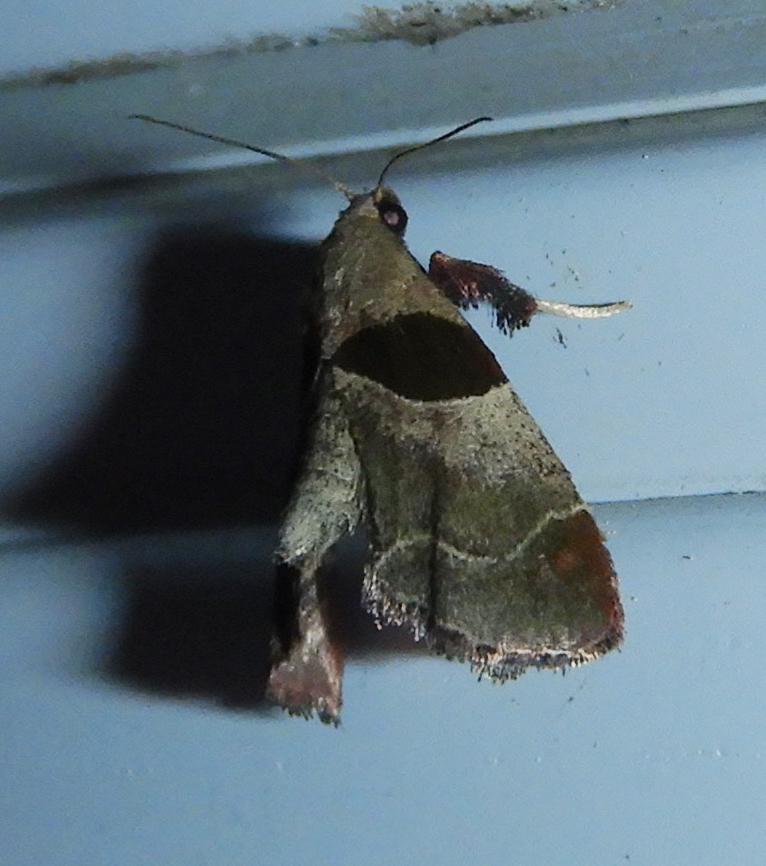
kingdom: Animalia
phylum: Arthropoda
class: Insecta
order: Lepidoptera
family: Pyralidae
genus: Tosale
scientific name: Tosale oviplagalis
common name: Dimorphic tosale moth
